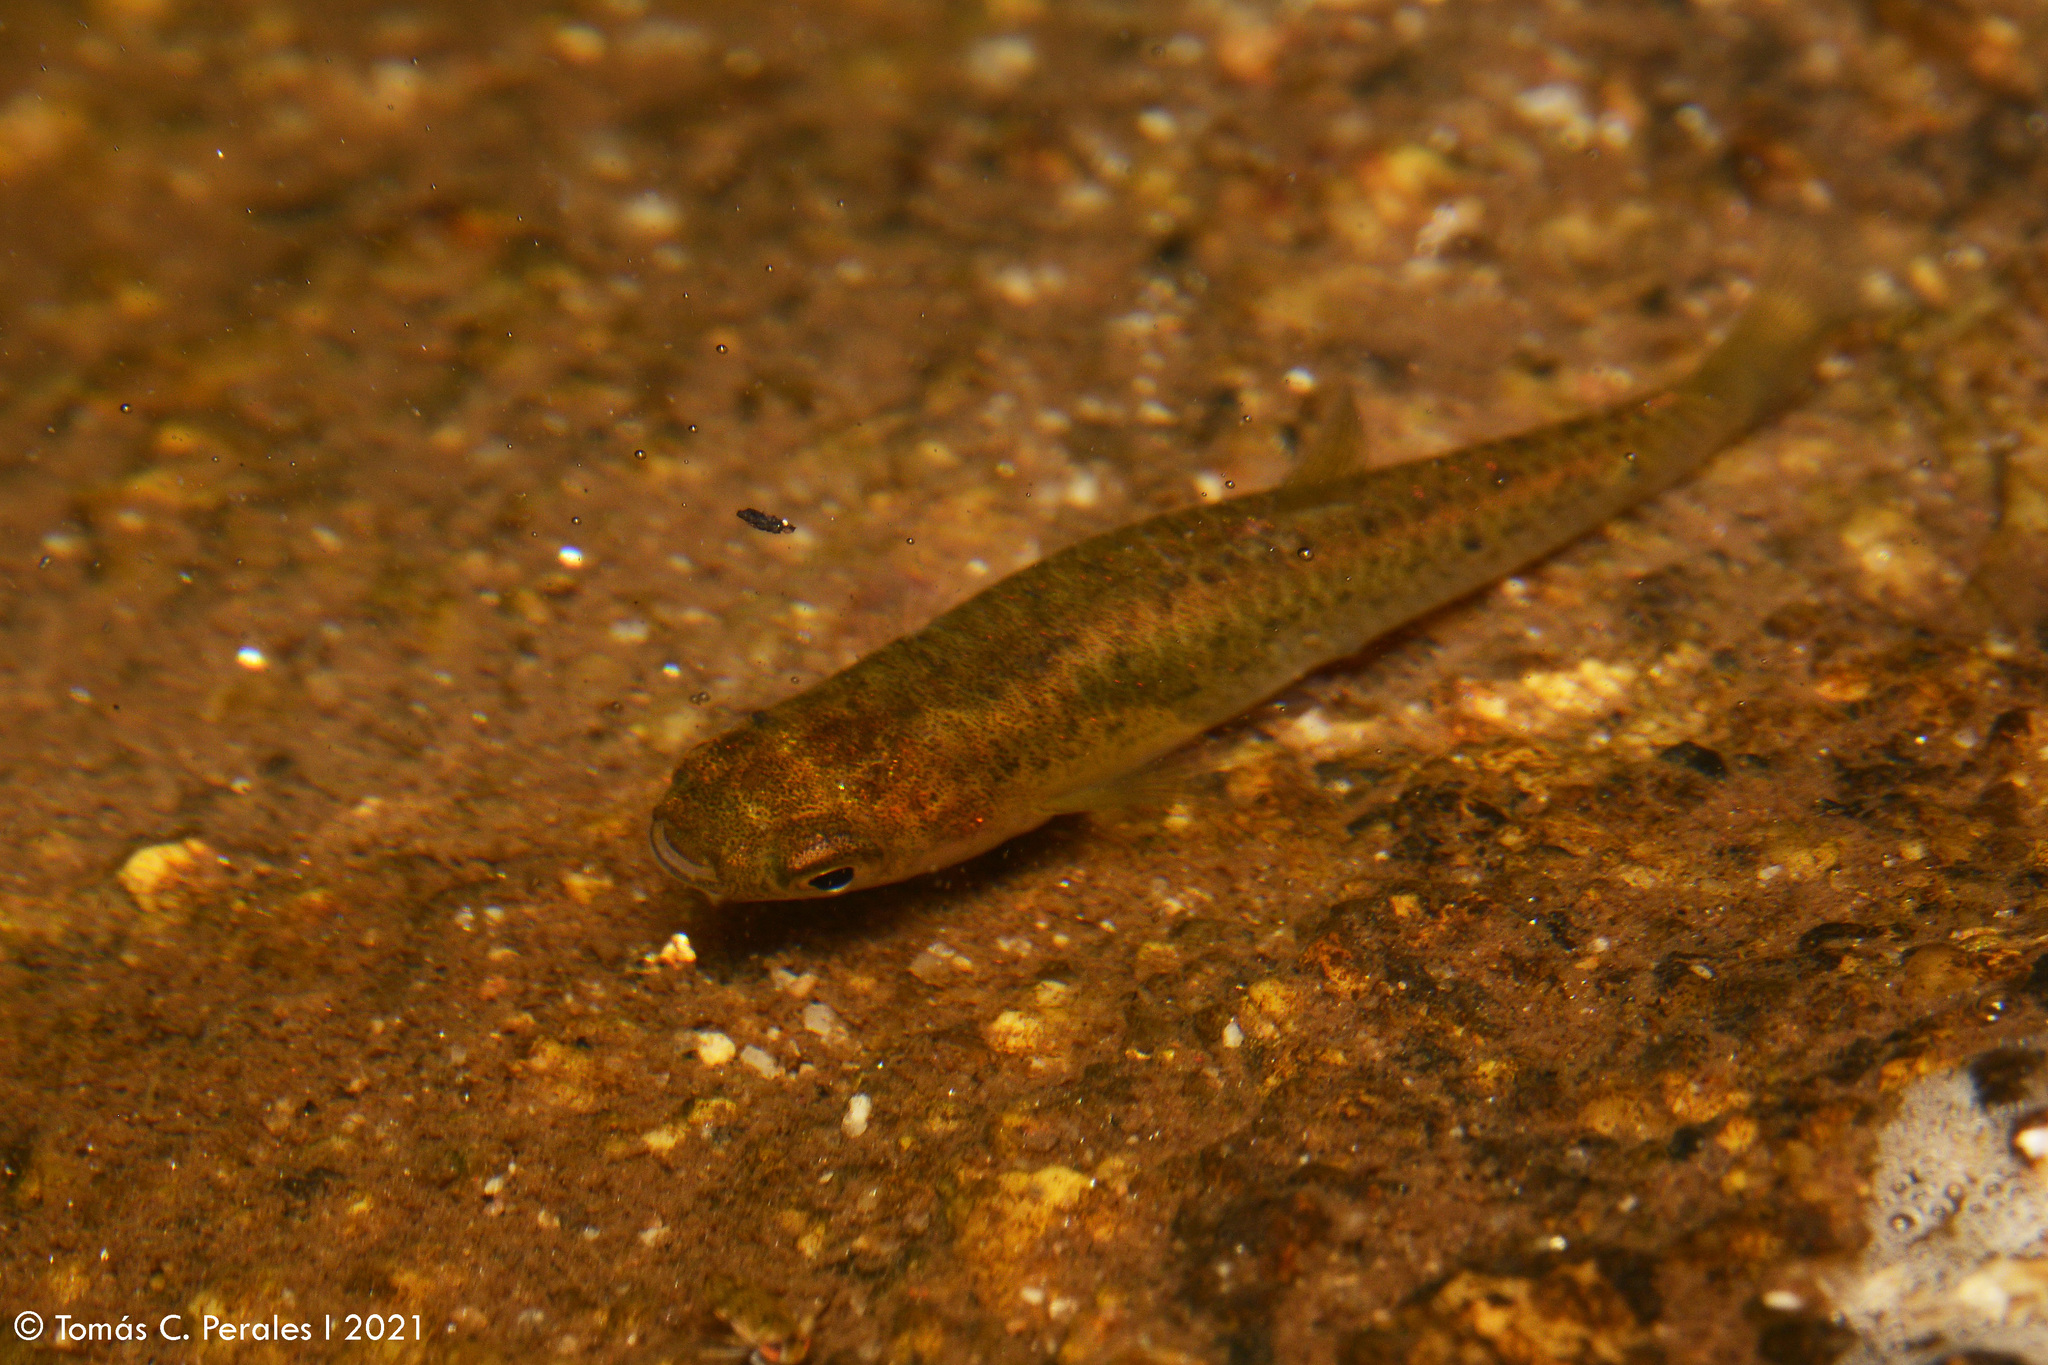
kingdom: Animalia
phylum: Chordata
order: Cyprinodontiformes
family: Anablepidae
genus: Jenynsia
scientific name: Jenynsia lineata
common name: Onesided livebearer
